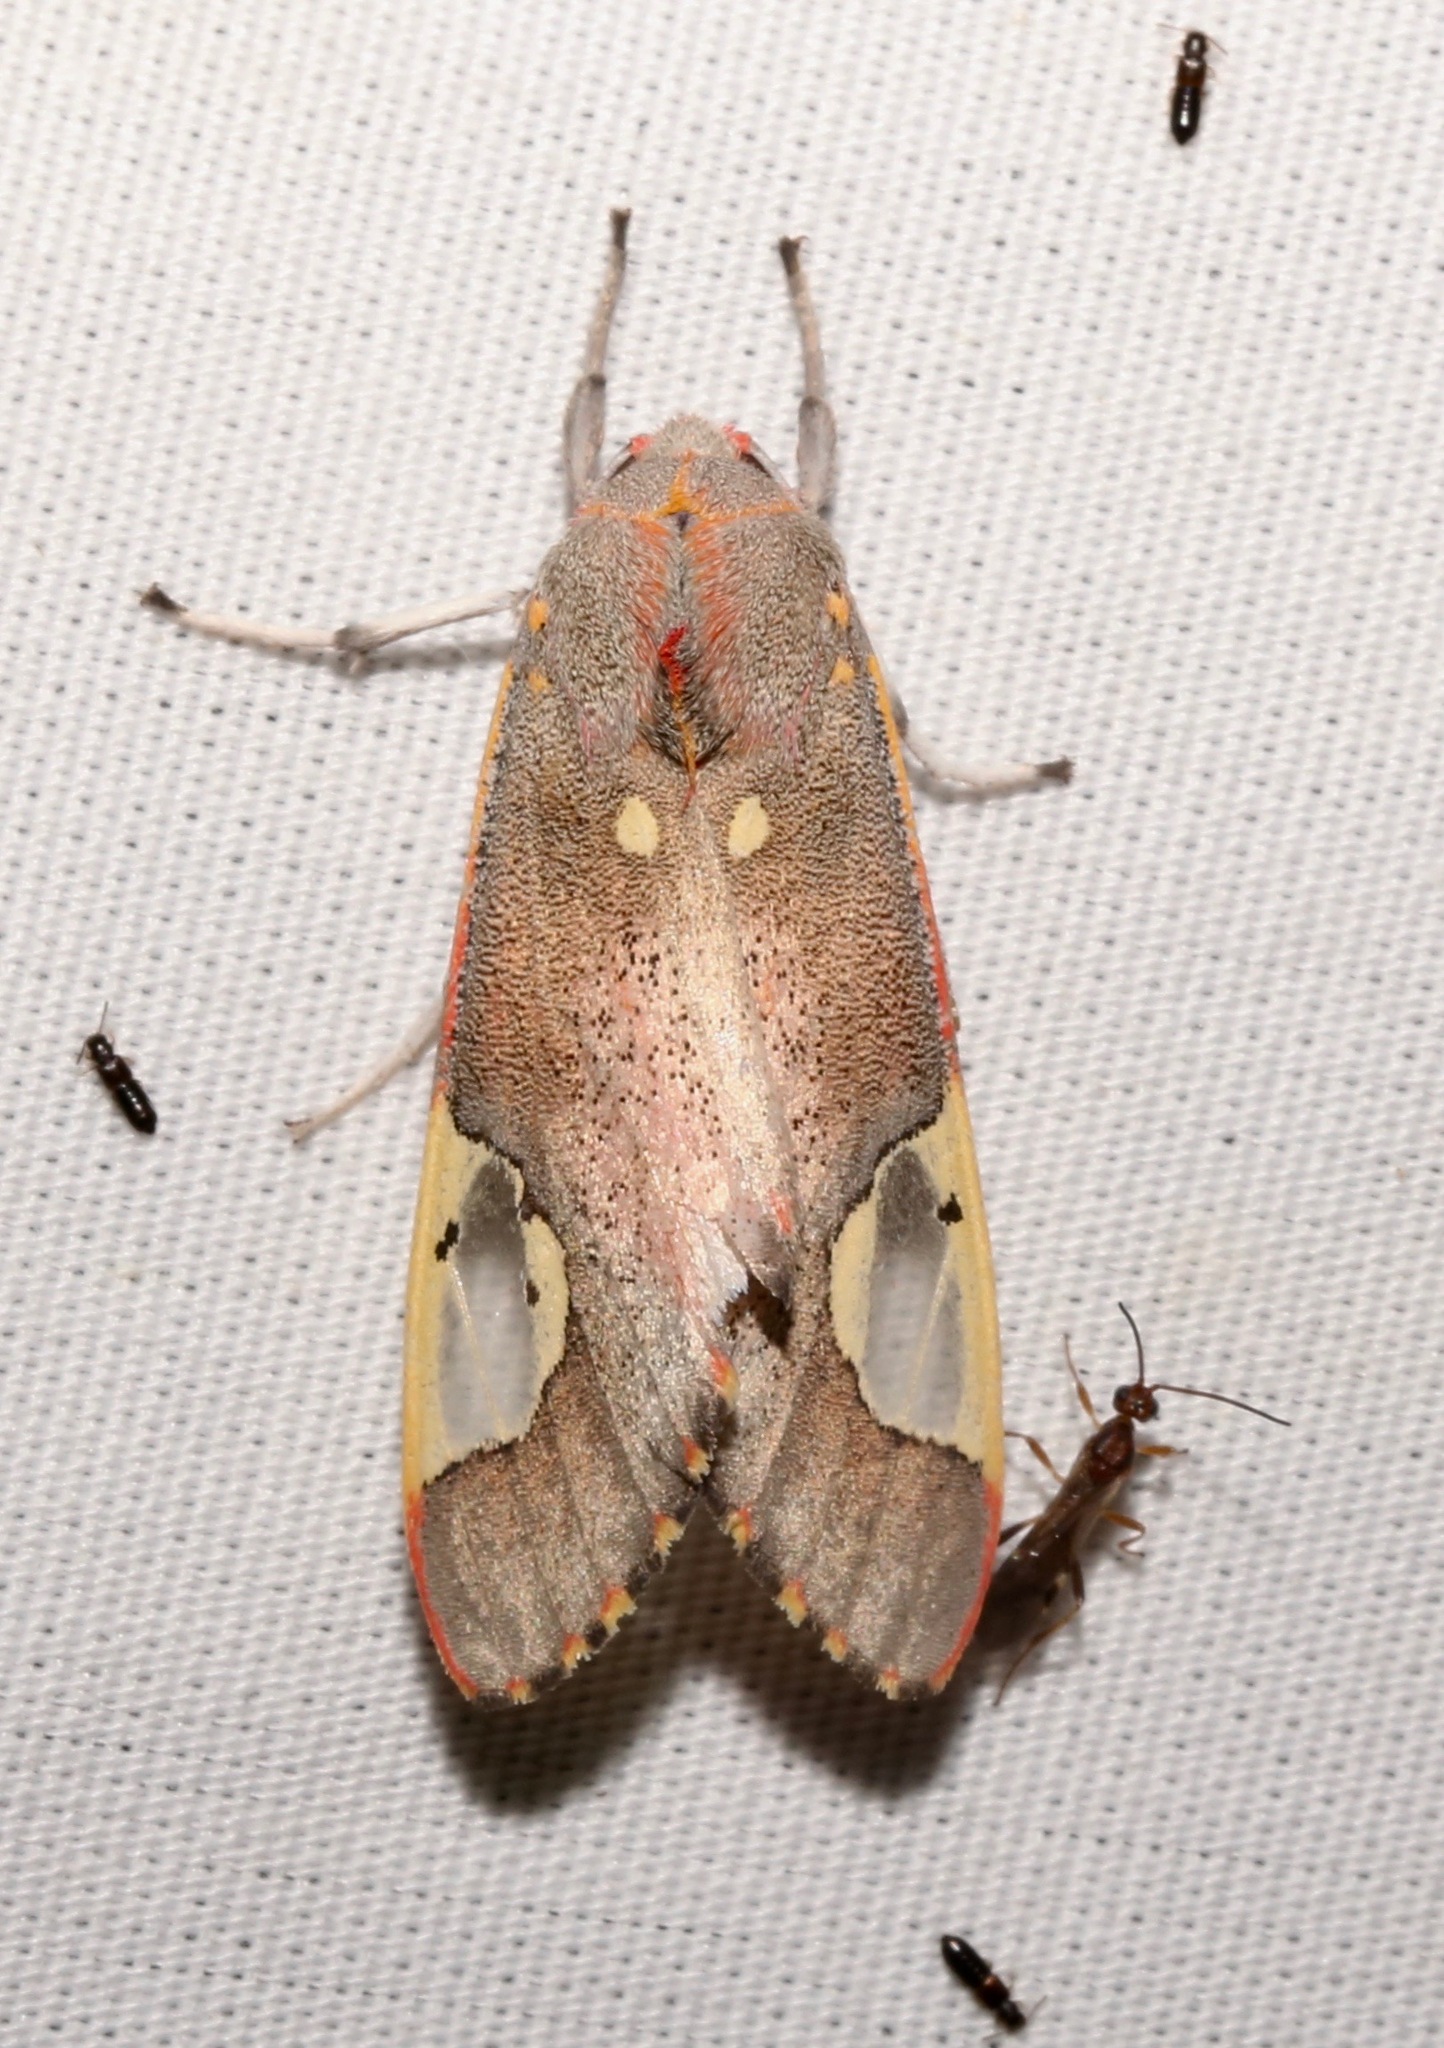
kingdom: Animalia
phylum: Arthropoda
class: Insecta
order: Lepidoptera
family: Erebidae
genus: Bertholdia
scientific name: Bertholdia trigona
